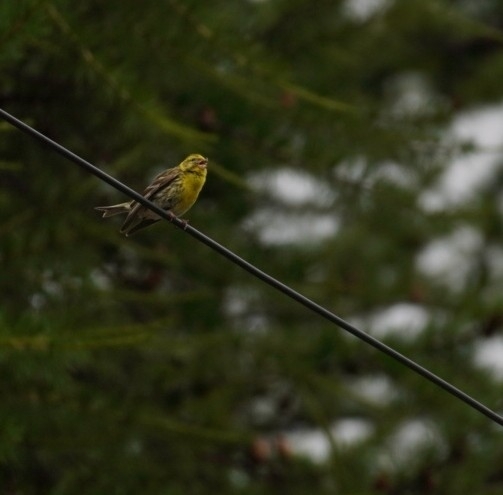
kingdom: Animalia
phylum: Chordata
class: Aves
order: Passeriformes
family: Fringillidae
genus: Serinus
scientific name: Serinus serinus
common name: European serin
